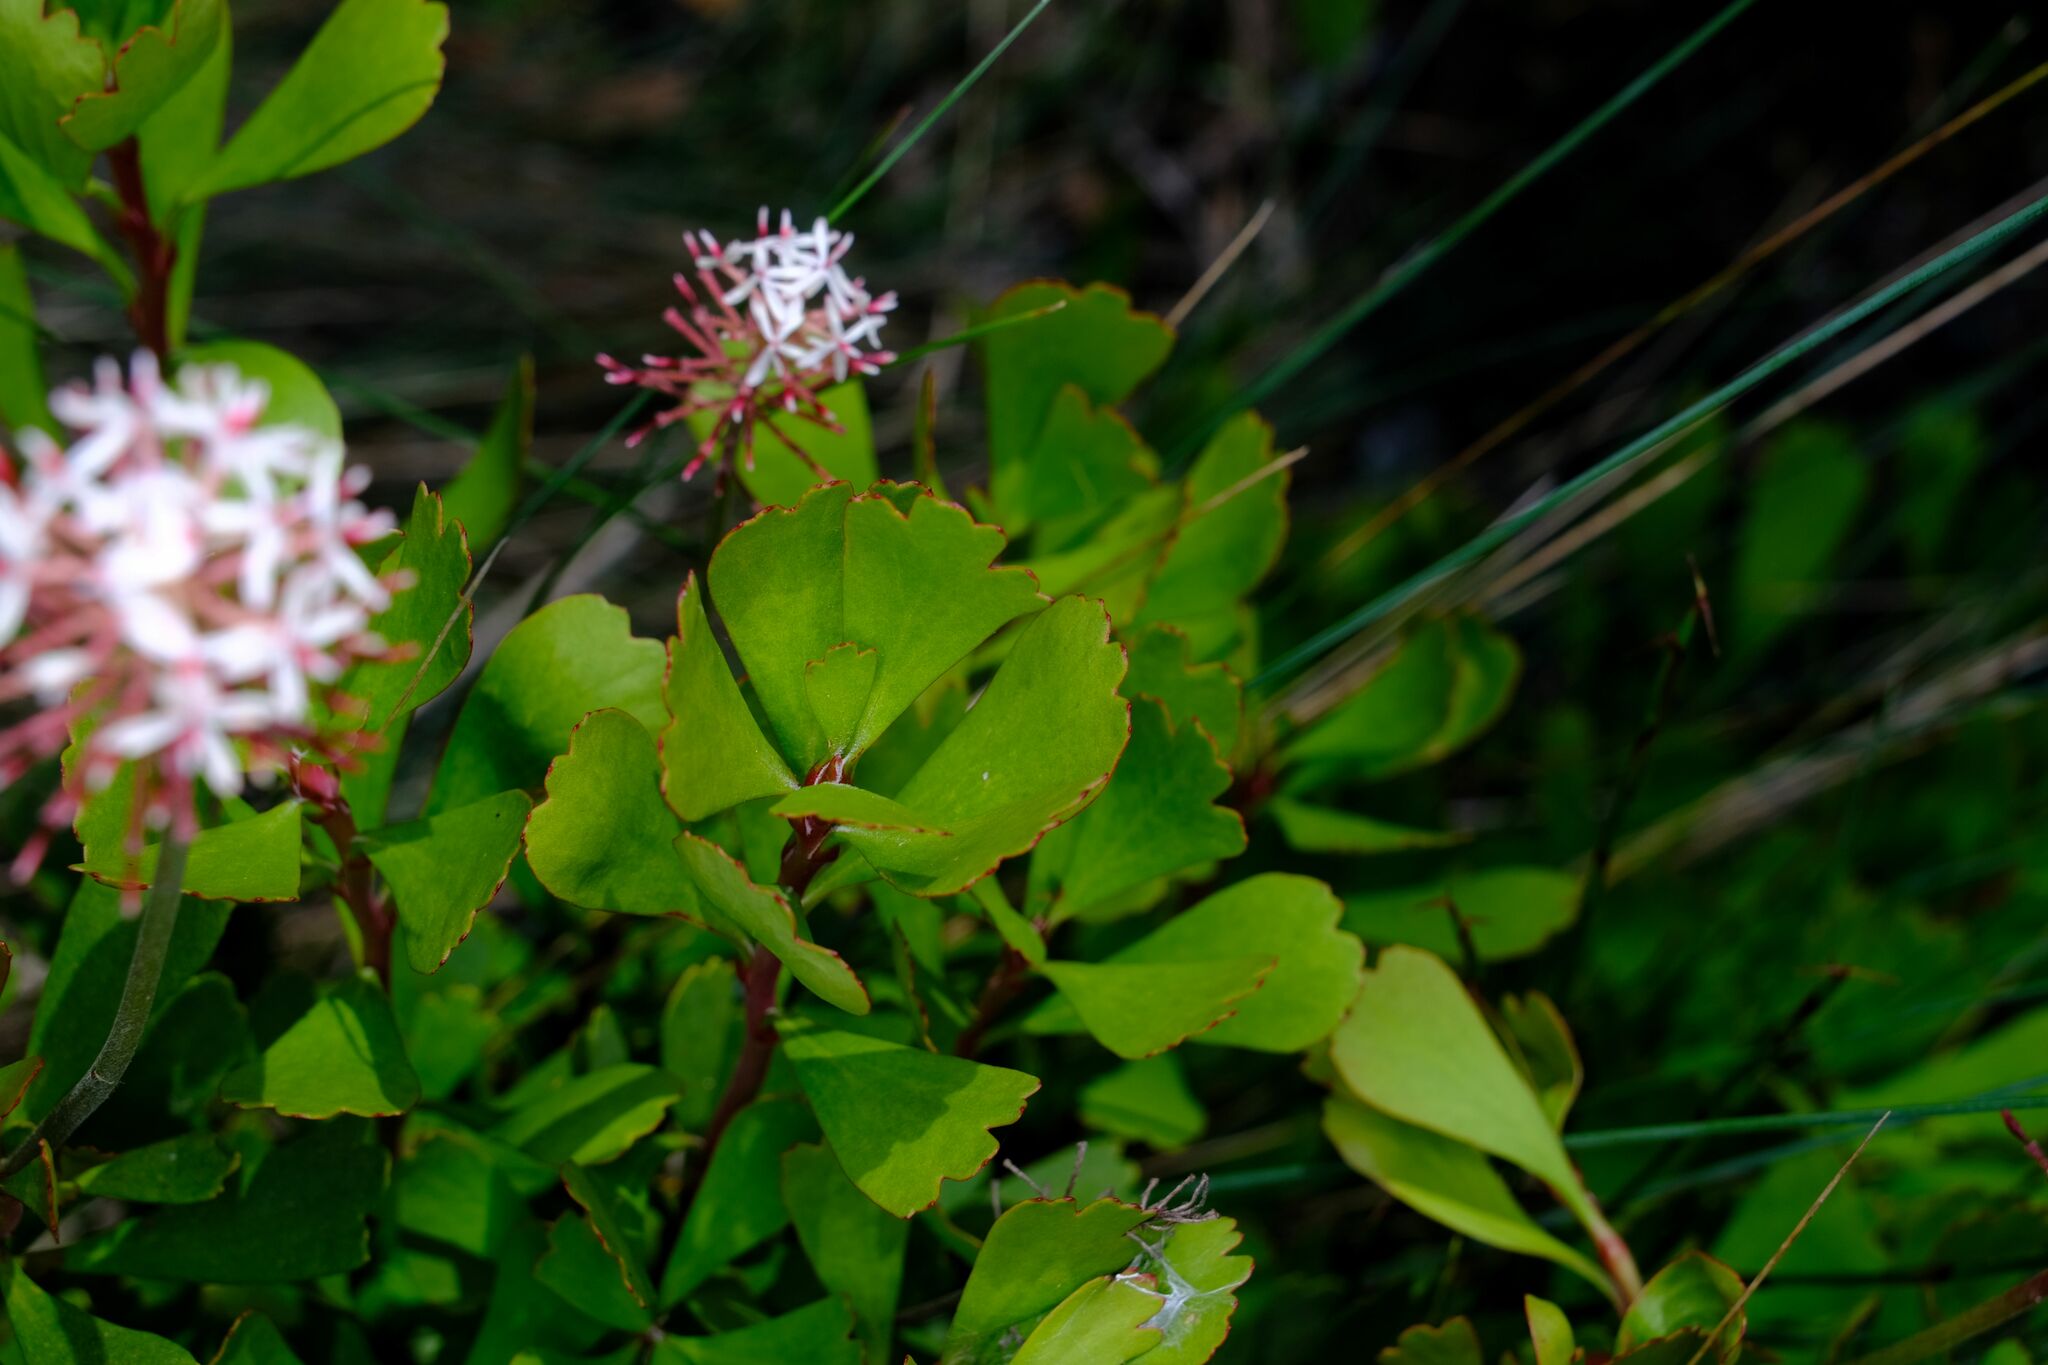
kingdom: Plantae
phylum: Tracheophyta
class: Magnoliopsida
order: Proteales
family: Proteaceae
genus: Bellendena
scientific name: Bellendena montana
